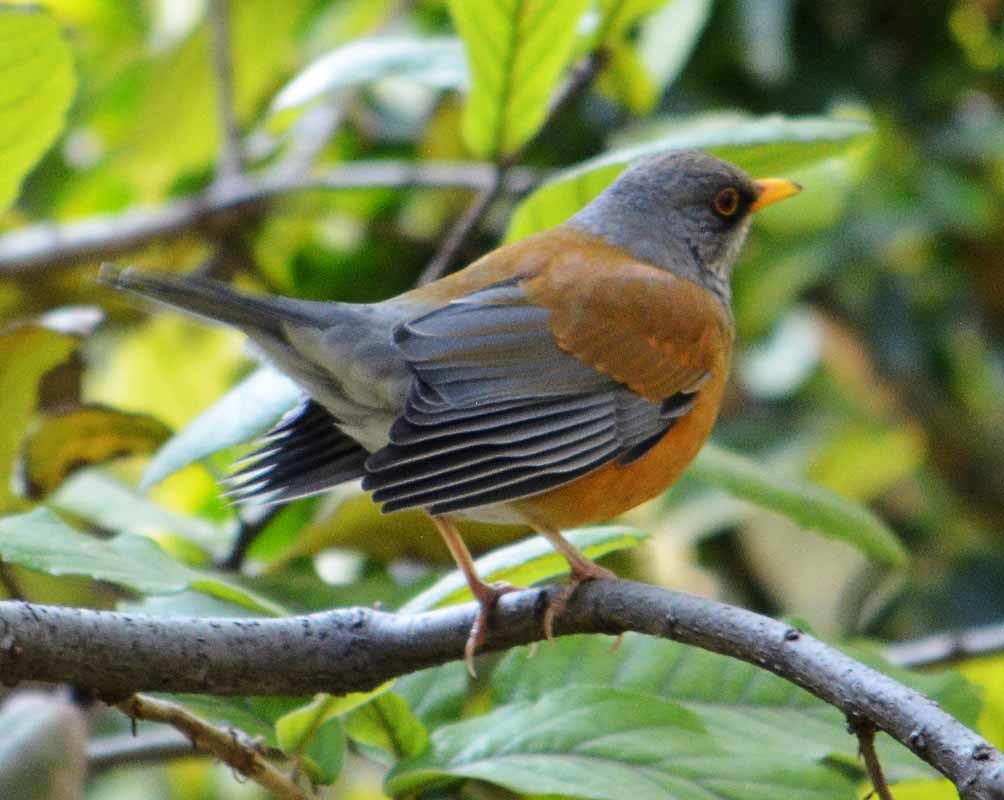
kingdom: Animalia
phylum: Chordata
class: Aves
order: Passeriformes
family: Turdidae
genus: Turdus
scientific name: Turdus rufopalliatus
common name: Rufous-backed robin
